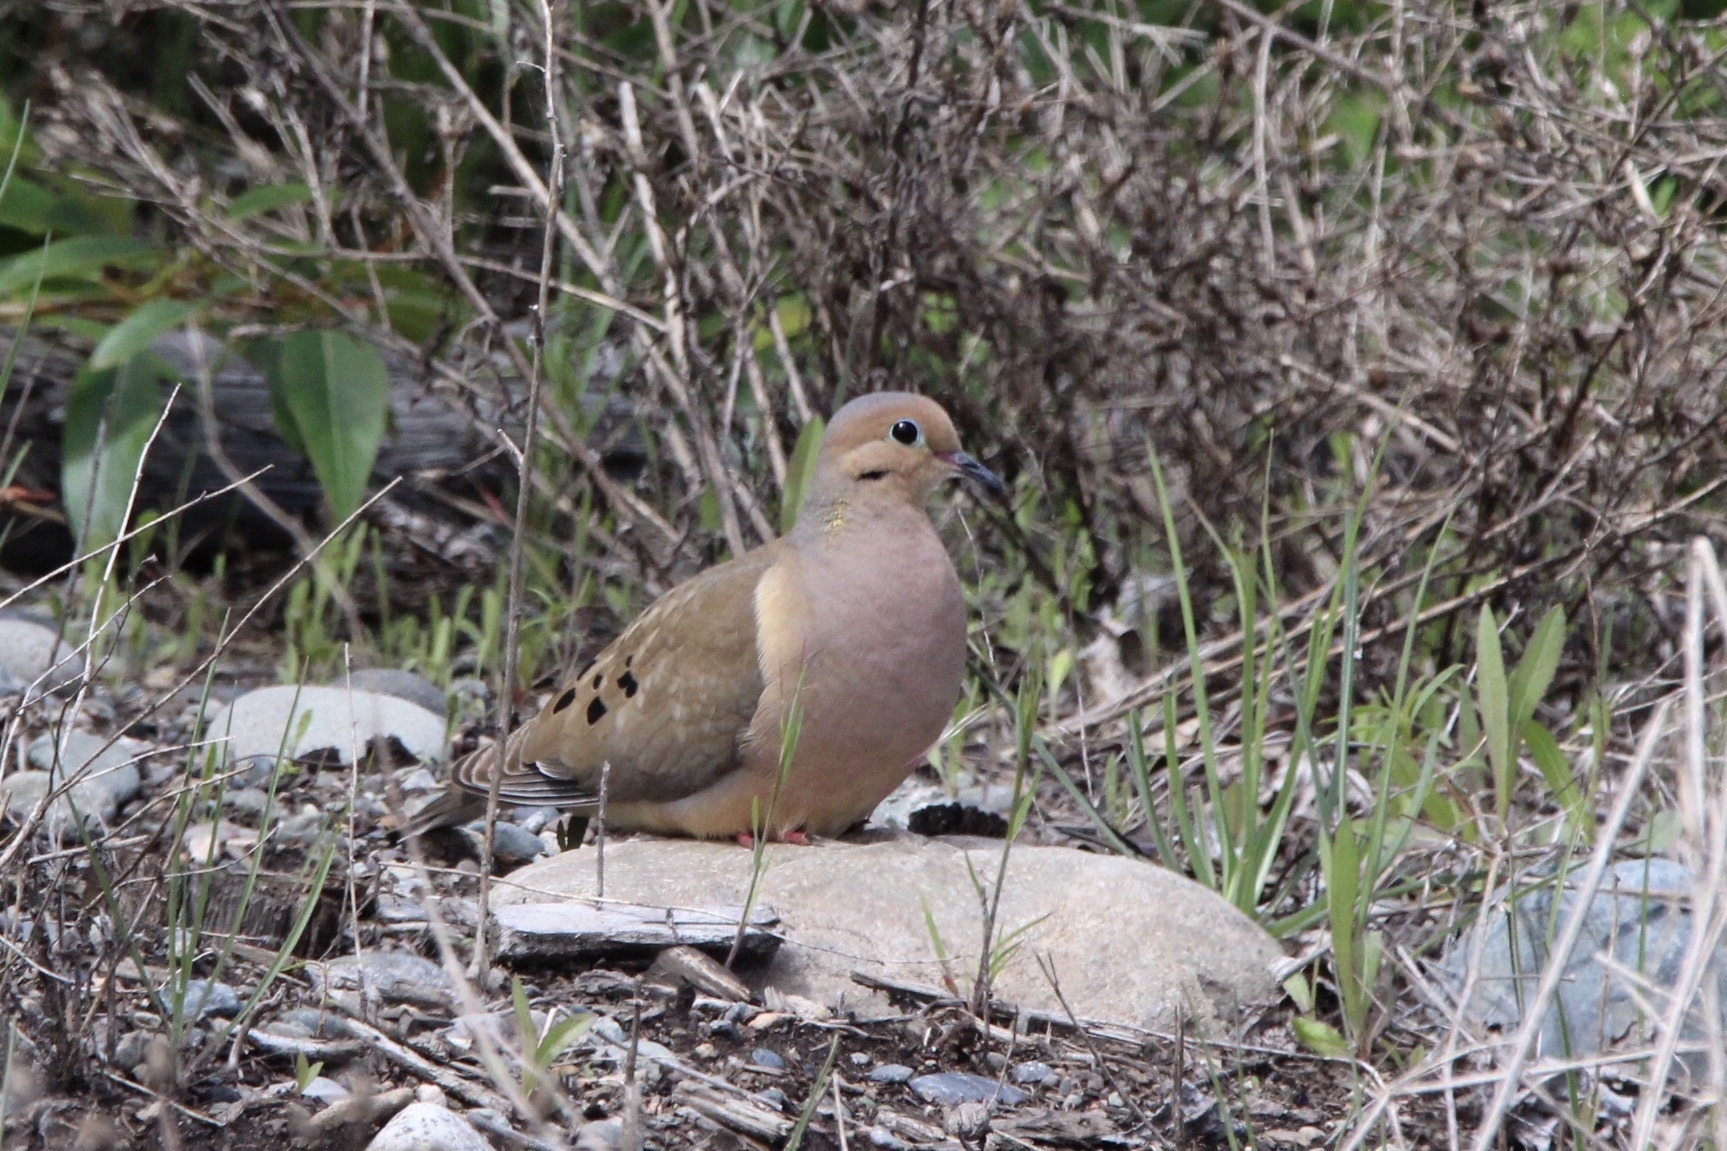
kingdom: Animalia
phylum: Chordata
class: Aves
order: Columbiformes
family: Columbidae
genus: Zenaida
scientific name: Zenaida macroura
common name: Mourning dove
